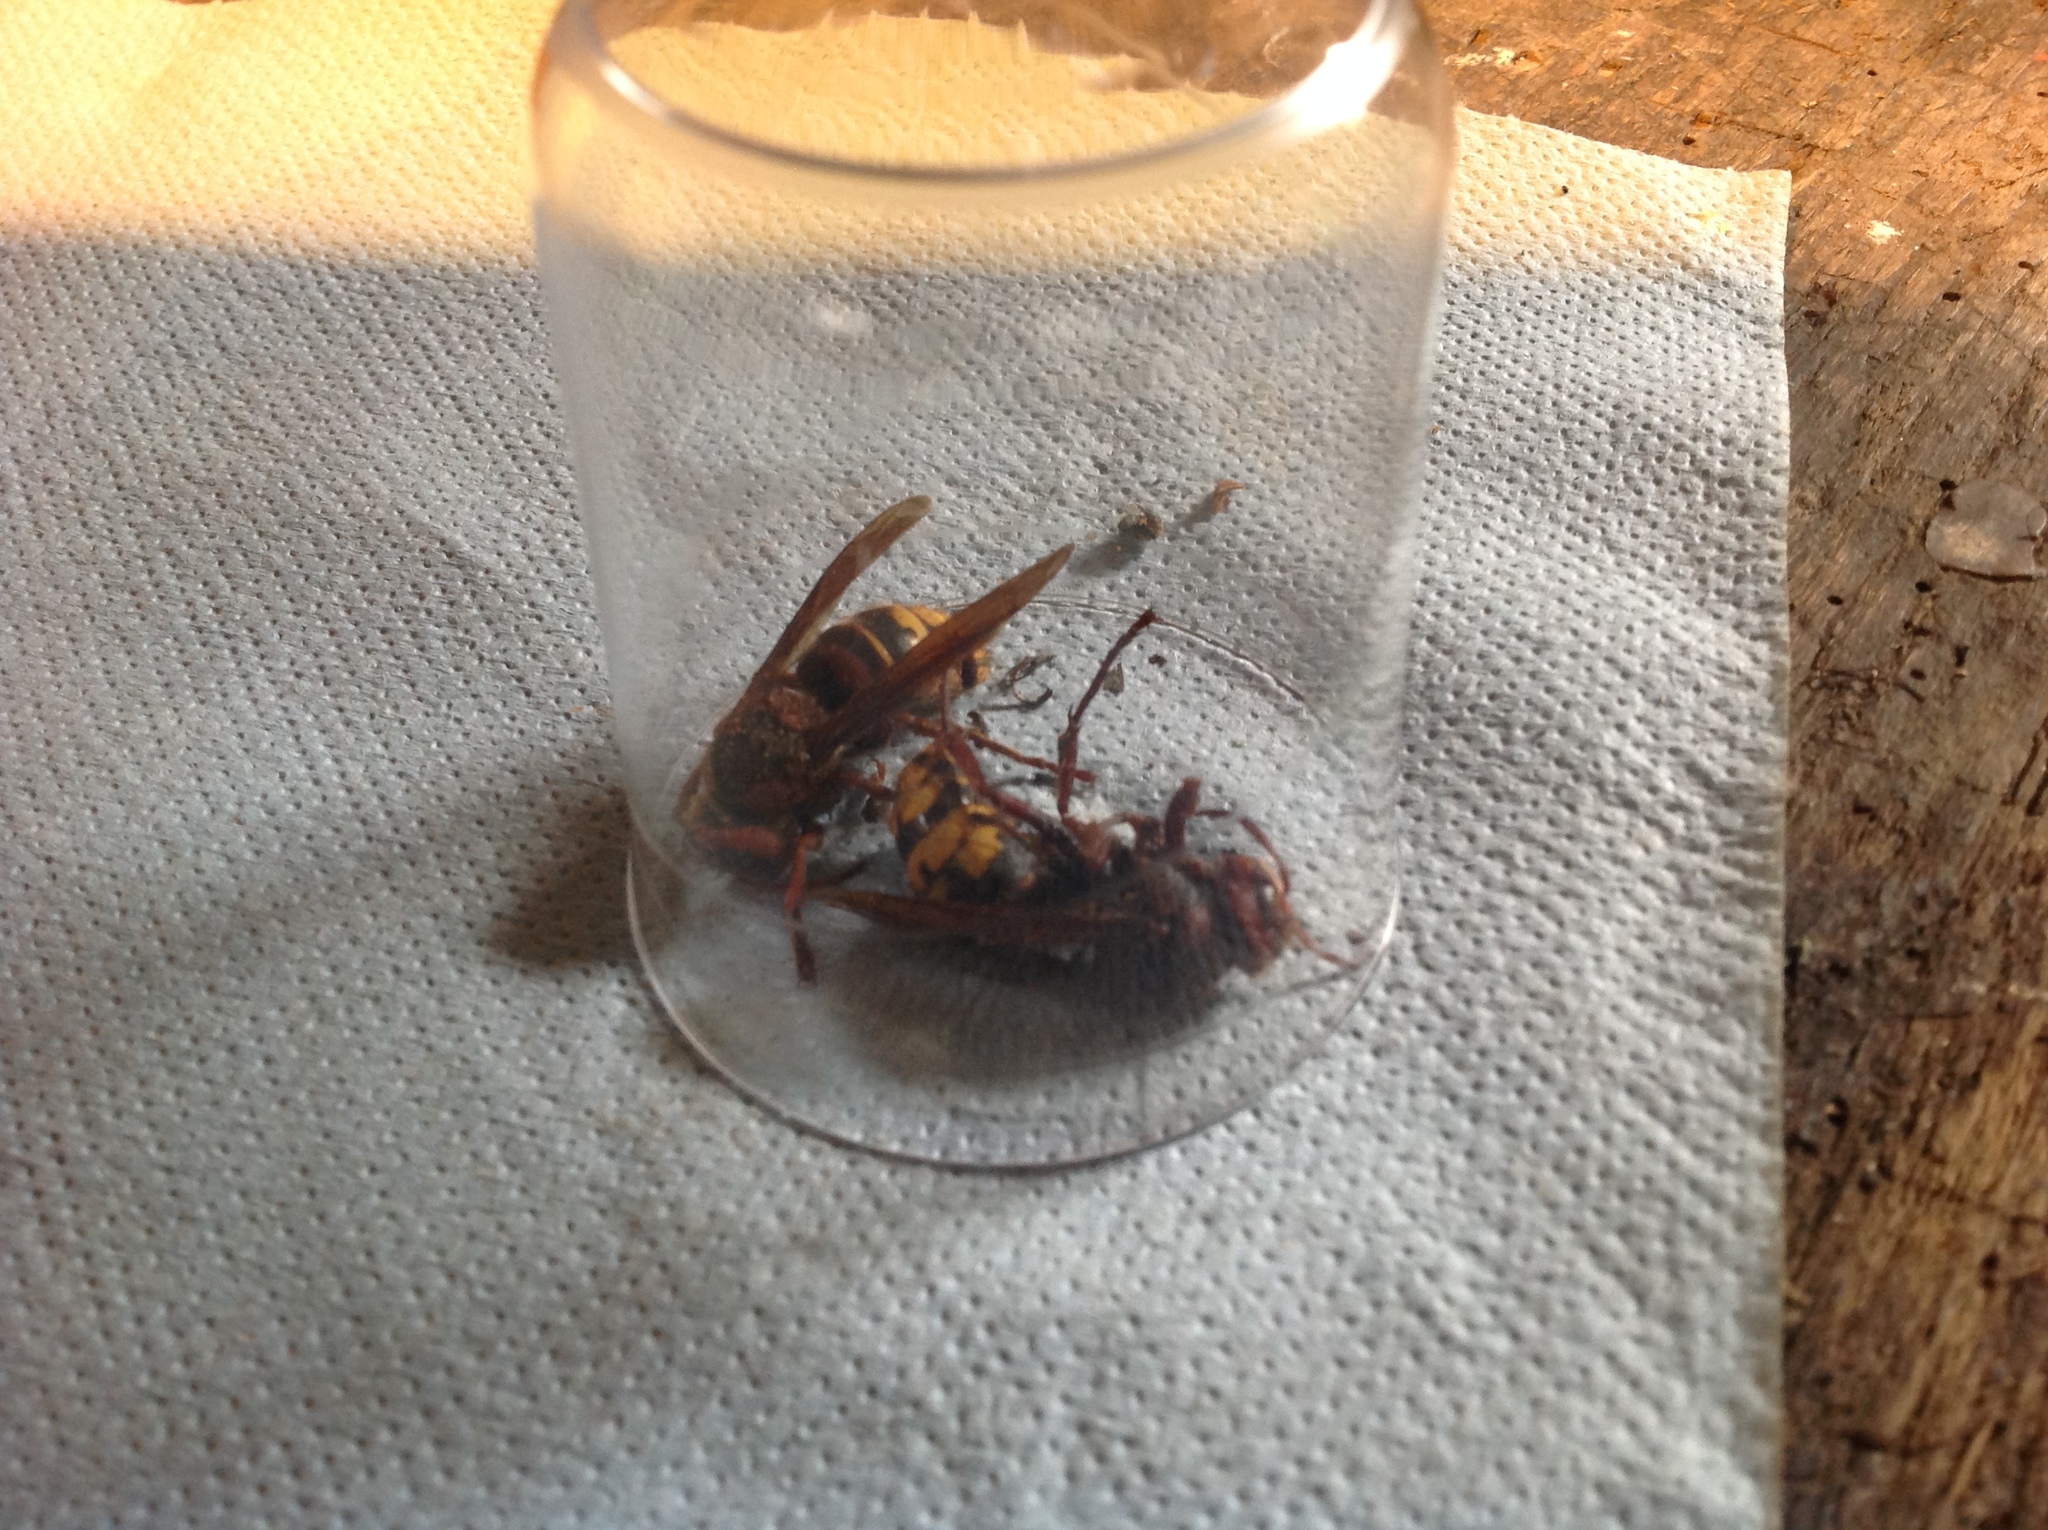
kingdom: Animalia
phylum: Arthropoda
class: Insecta
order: Hymenoptera
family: Vespidae
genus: Vespa
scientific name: Vespa crabro
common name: Hornet
